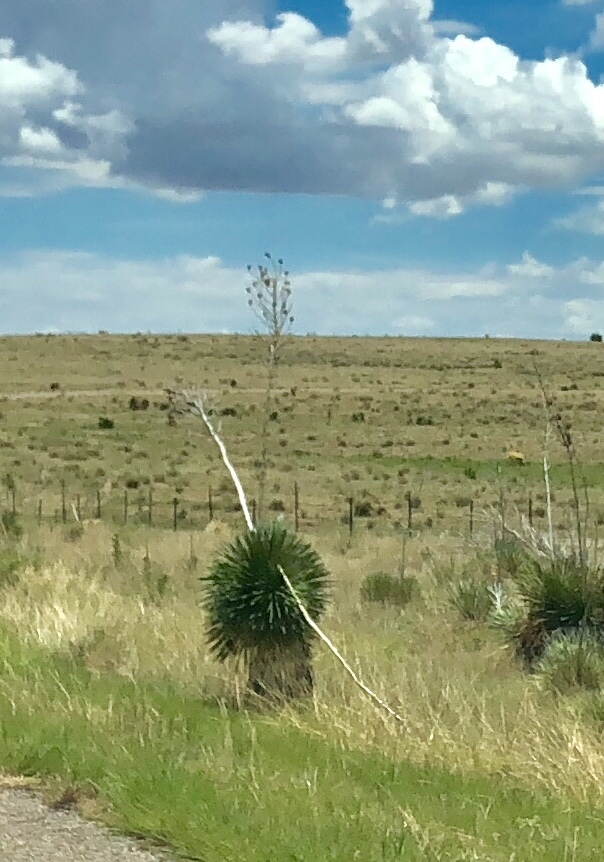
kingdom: Plantae
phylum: Tracheophyta
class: Liliopsida
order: Asparagales
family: Asparagaceae
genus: Yucca
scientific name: Yucca elata
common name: Palmella
